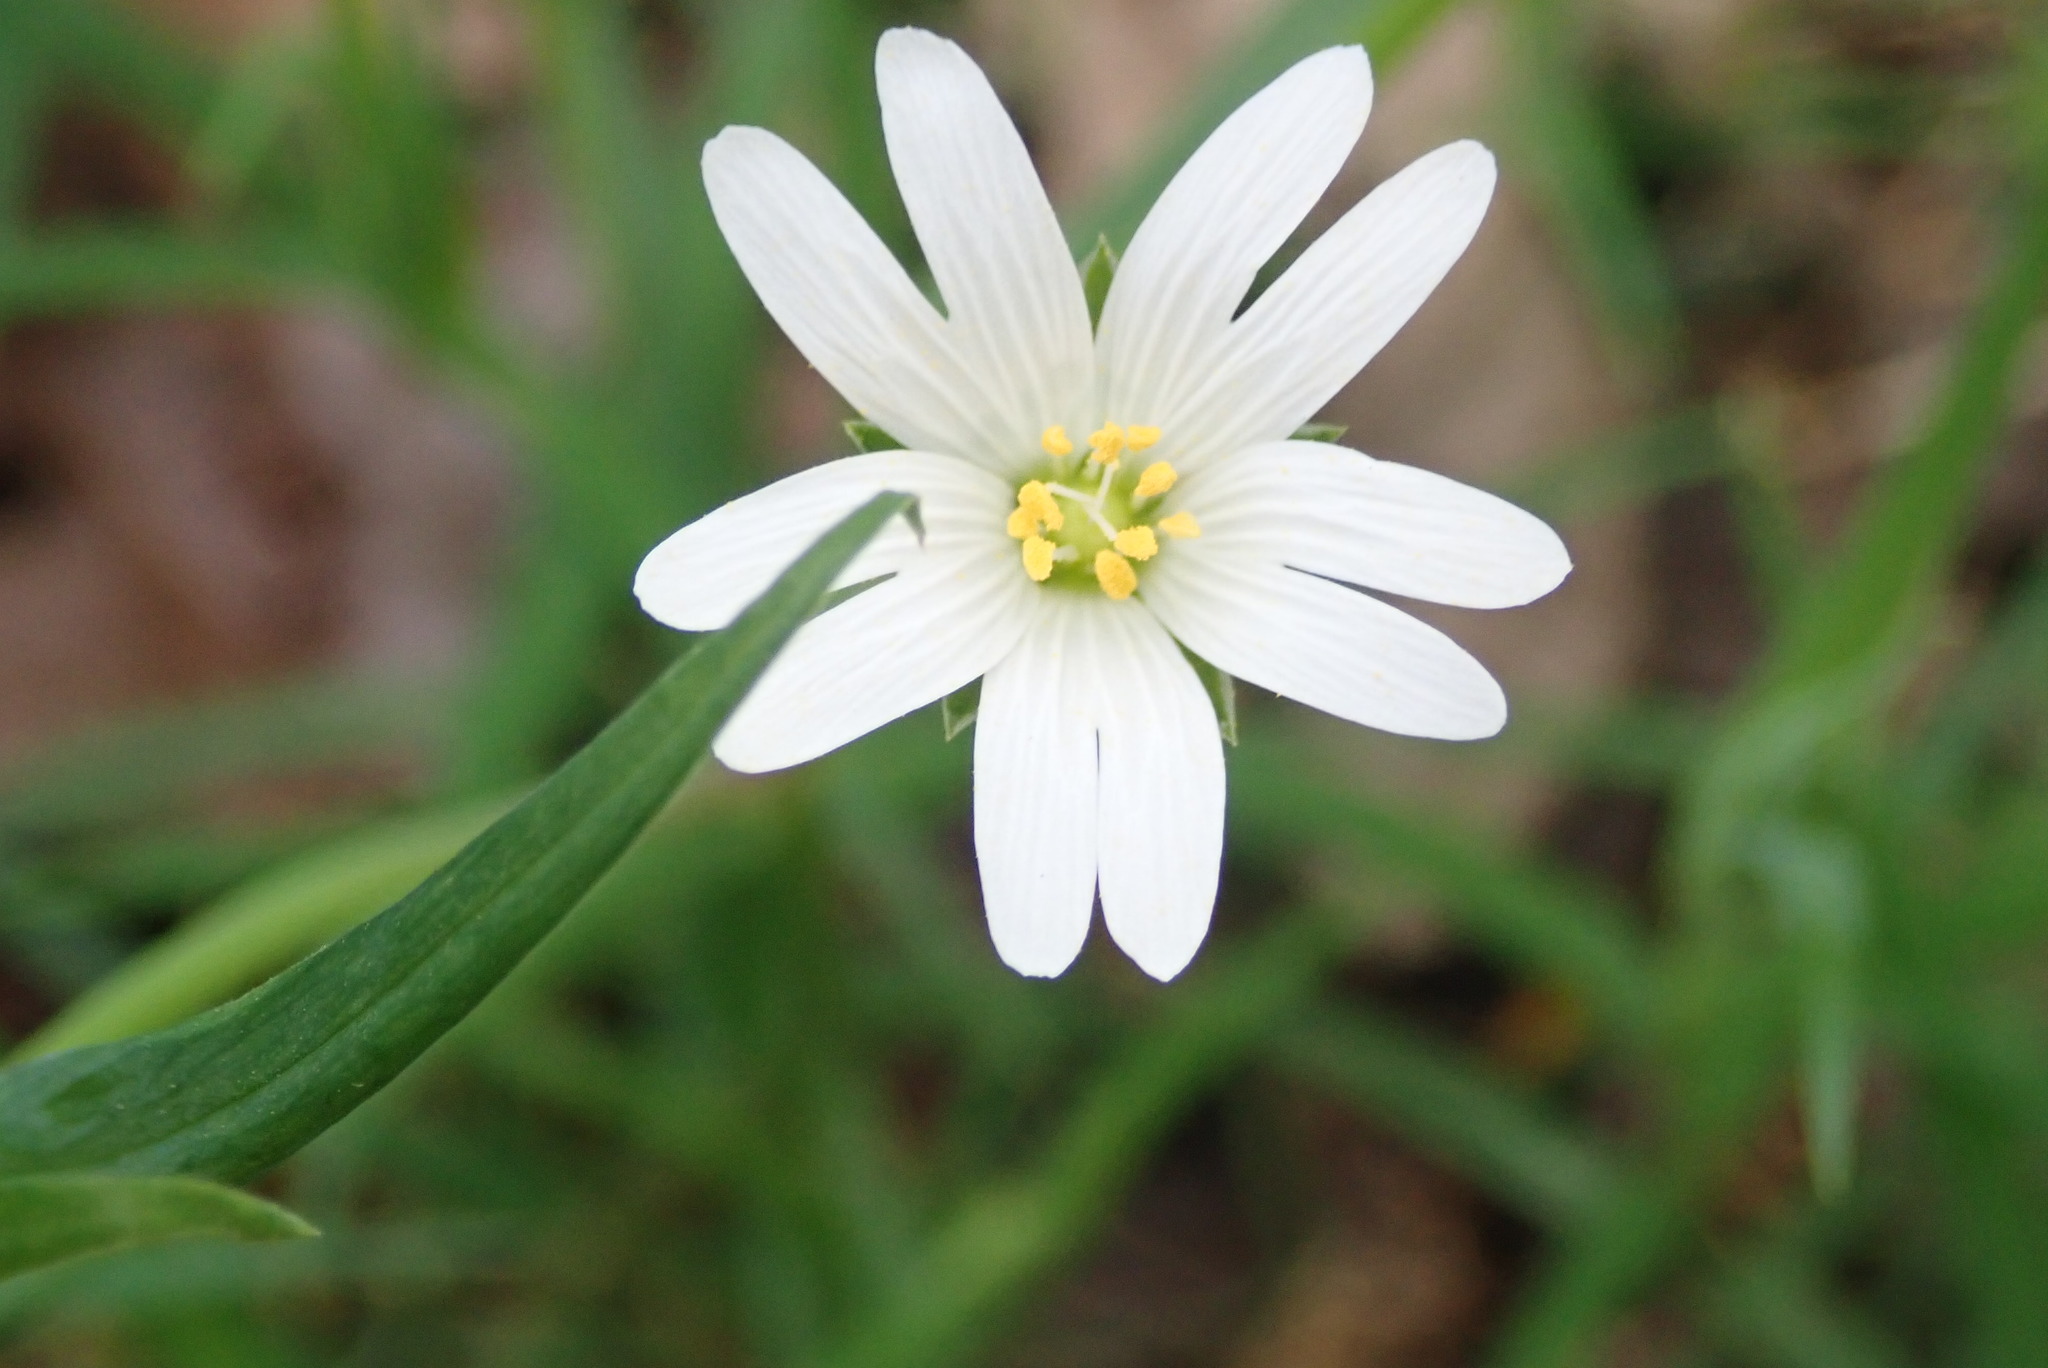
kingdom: Plantae
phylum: Tracheophyta
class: Magnoliopsida
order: Caryophyllales
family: Caryophyllaceae
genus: Rabelera
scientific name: Rabelera holostea
